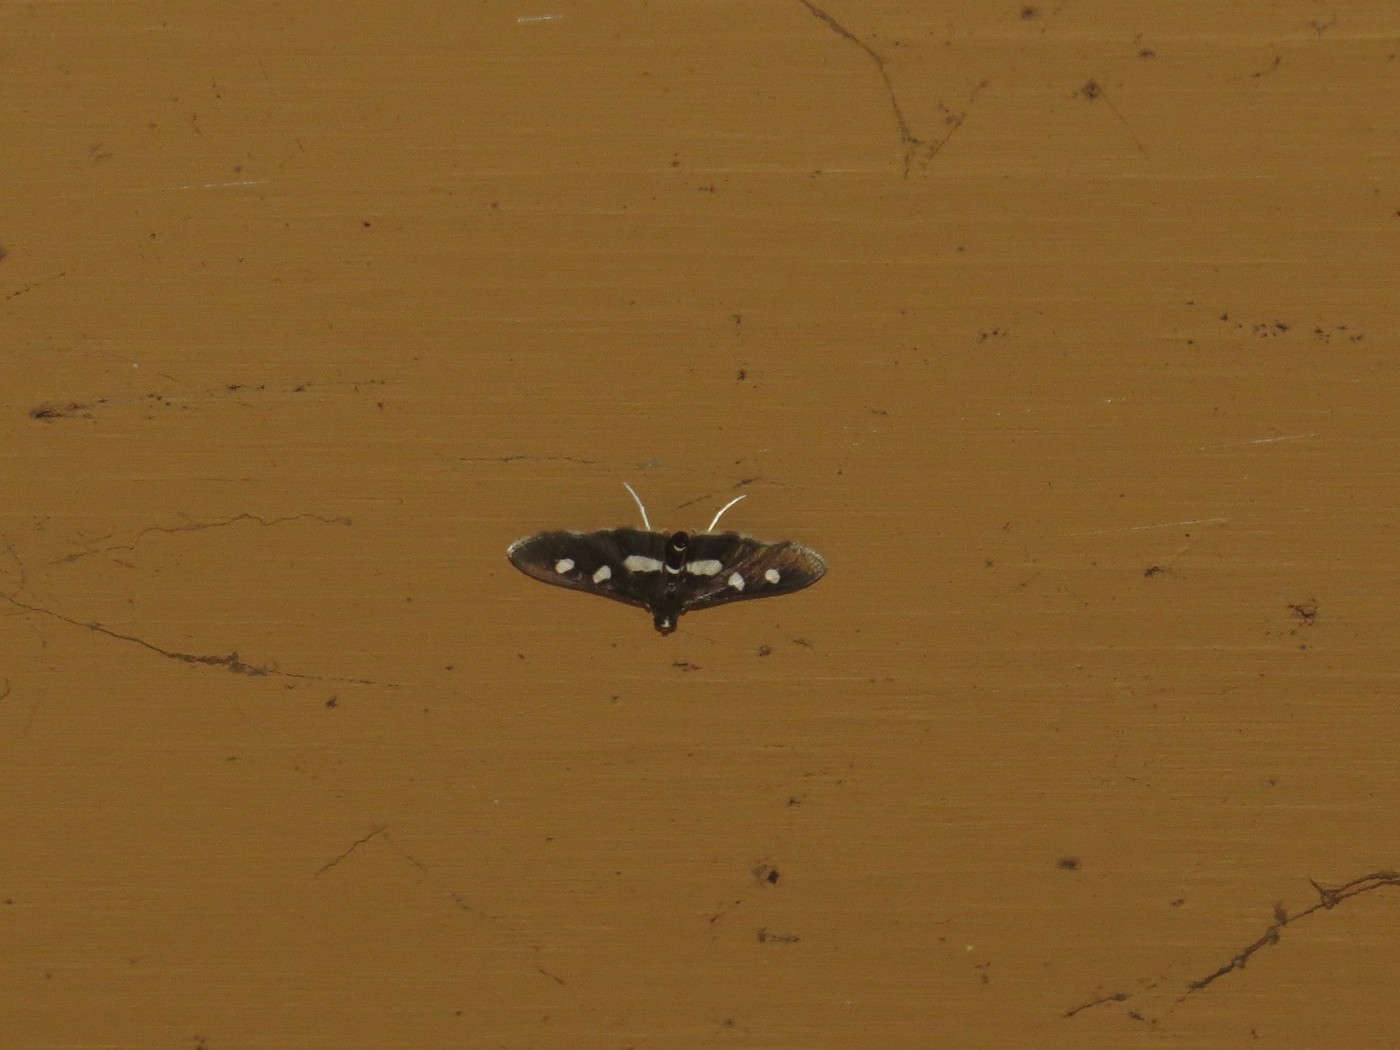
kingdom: Animalia
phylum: Arthropoda
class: Insecta
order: Lepidoptera
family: Crambidae
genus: Desmia
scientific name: Desmia
